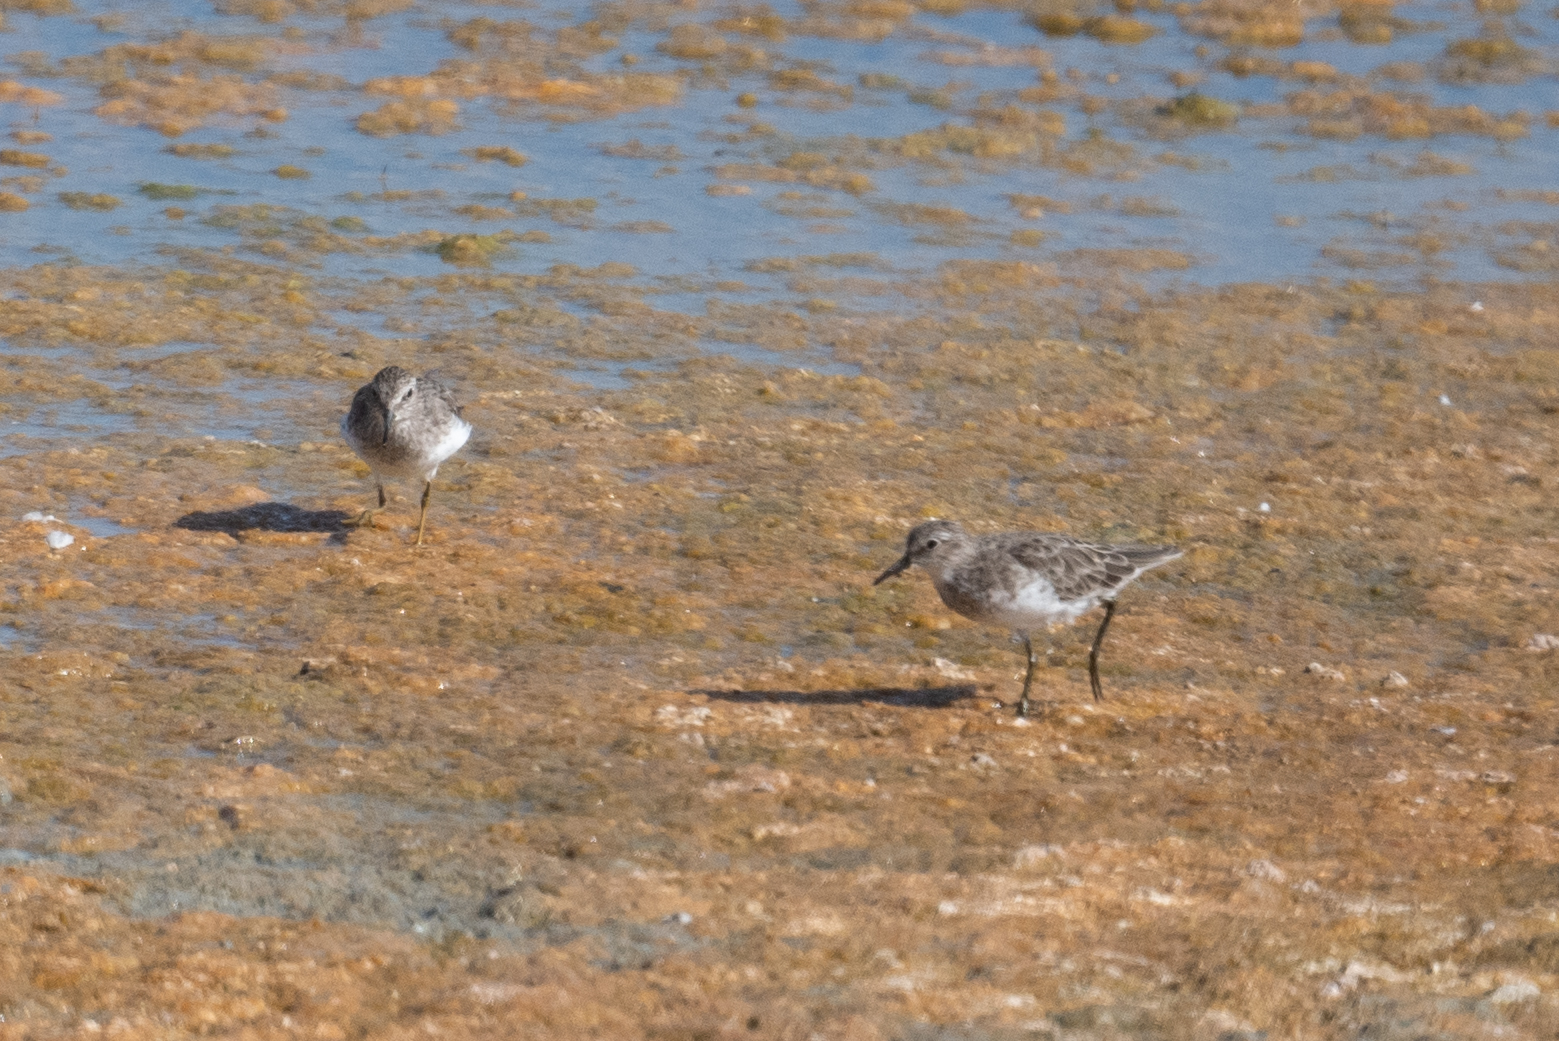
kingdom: Animalia
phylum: Chordata
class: Aves
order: Charadriiformes
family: Scolopacidae
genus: Calidris
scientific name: Calidris minutilla
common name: Least sandpiper
